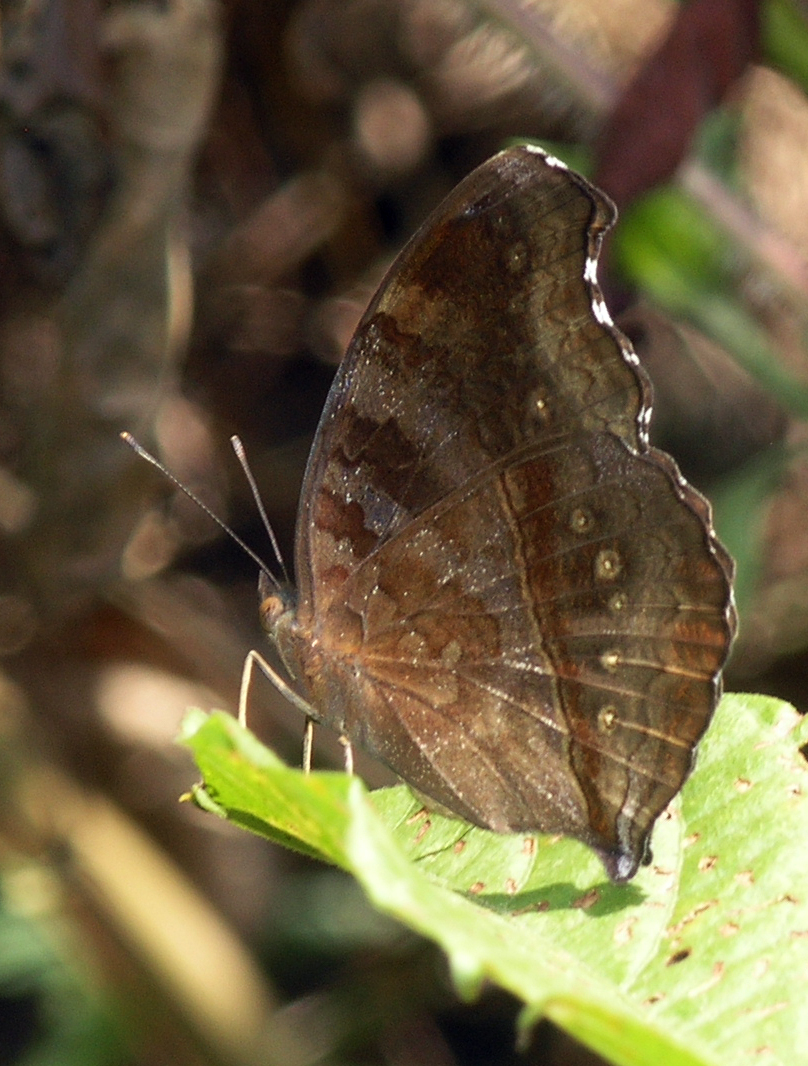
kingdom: Animalia
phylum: Arthropoda
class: Insecta
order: Lepidoptera
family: Nymphalidae
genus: Junonia
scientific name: Junonia iphita
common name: Chocolate pansy
